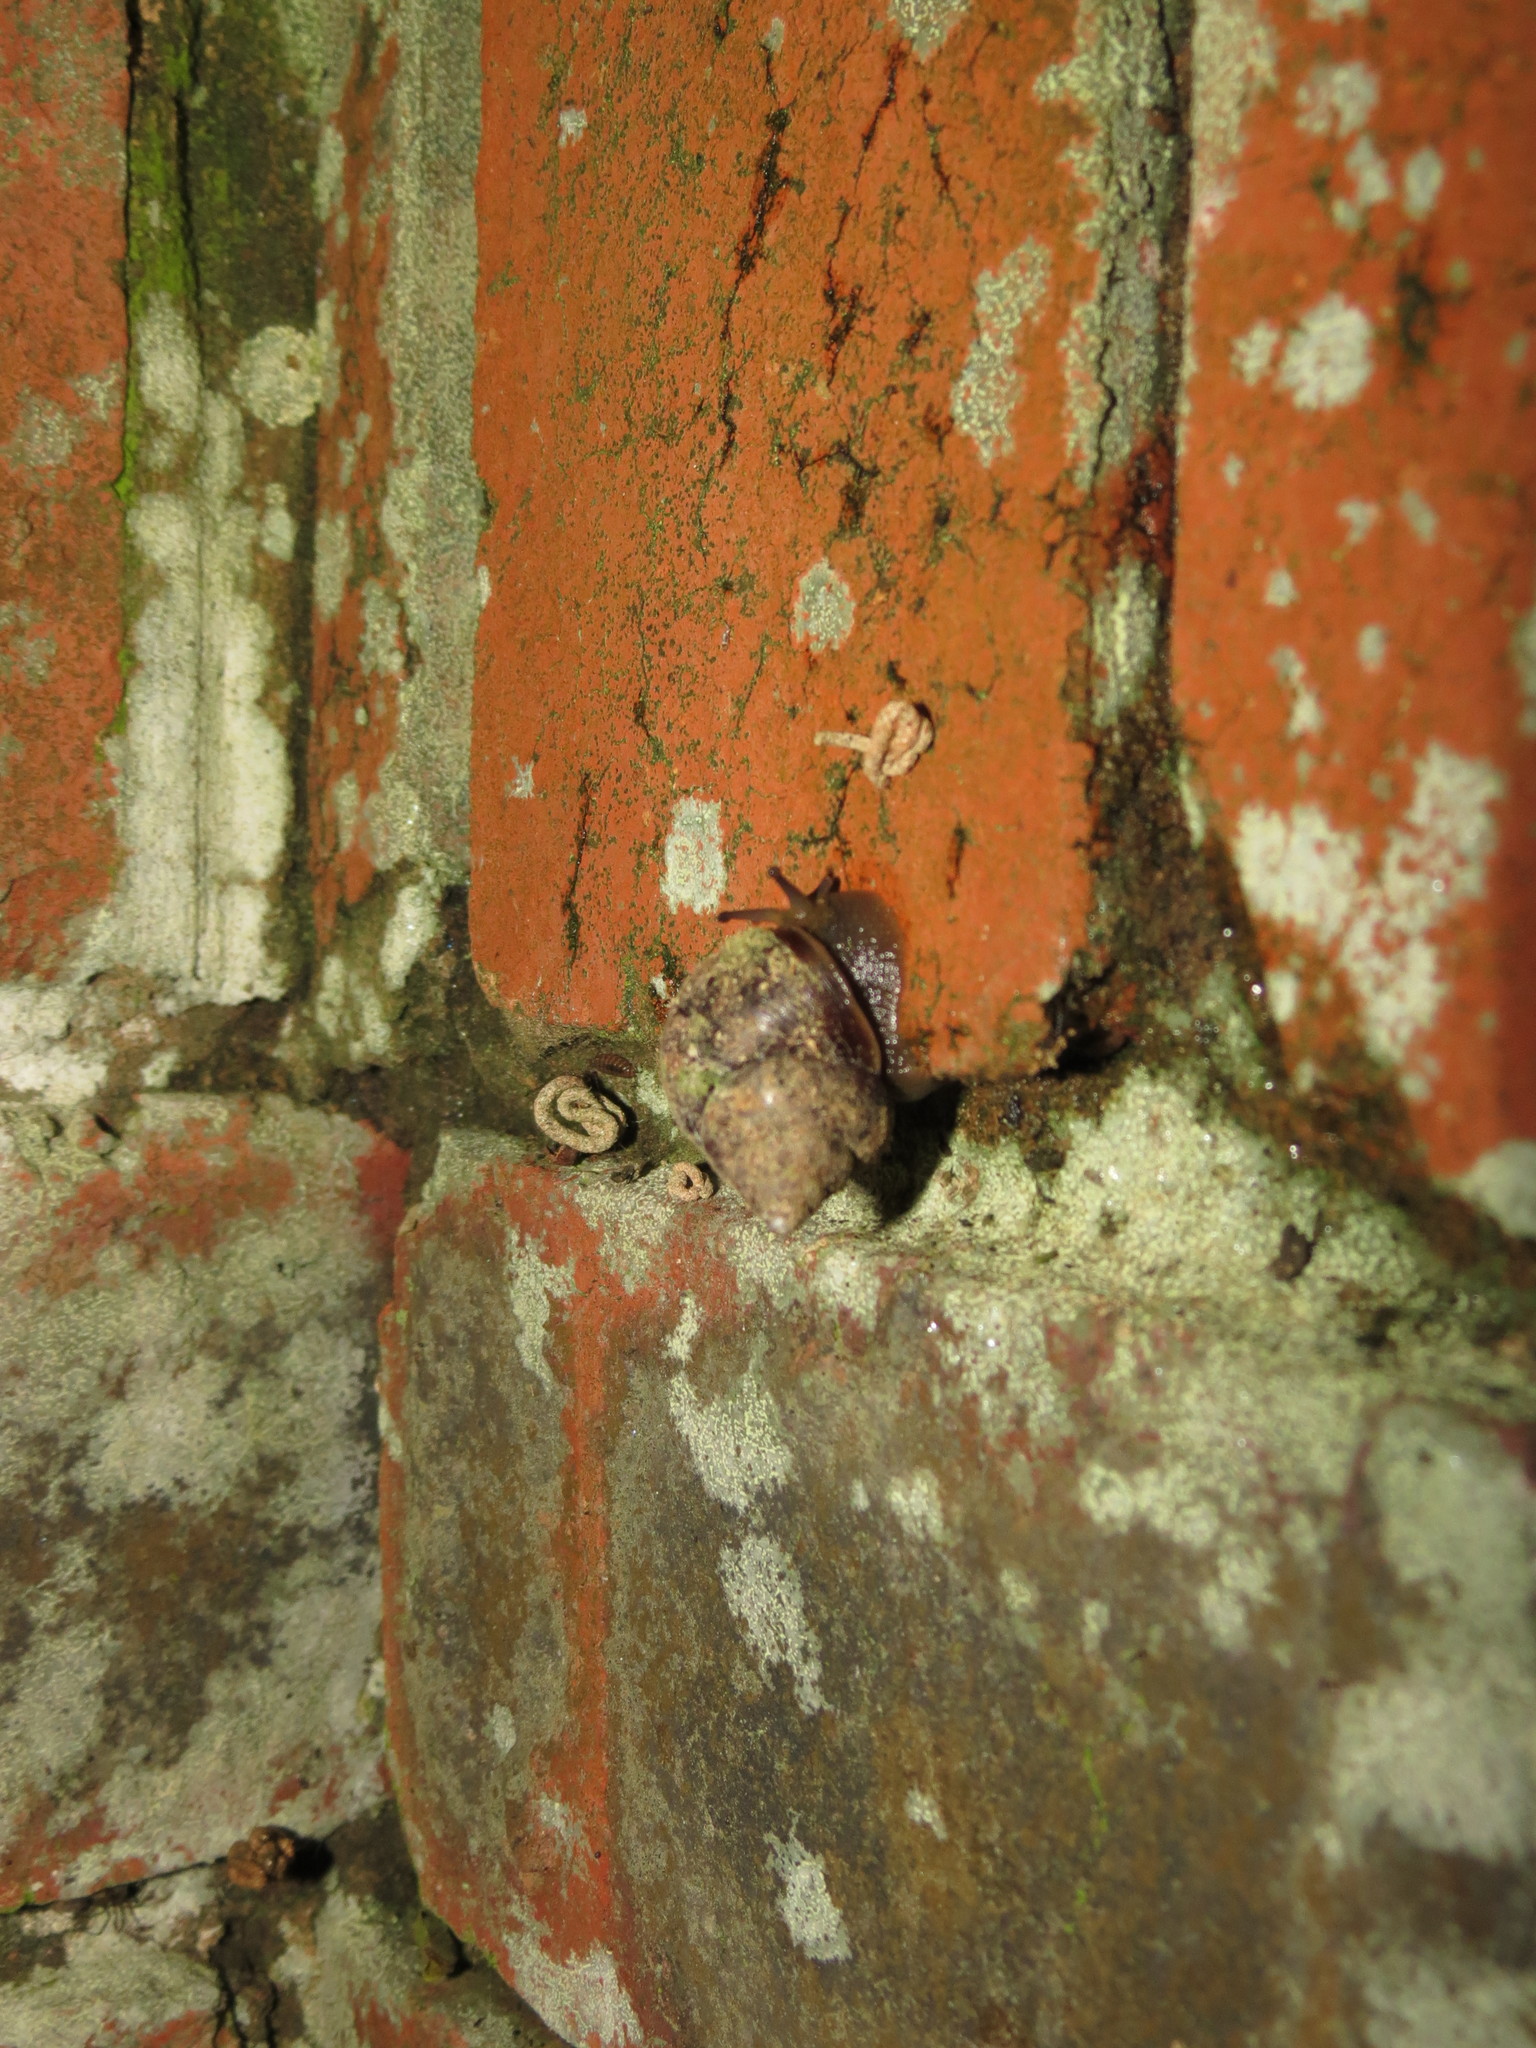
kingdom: Animalia
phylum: Mollusca
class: Gastropoda
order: Stylommatophora
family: Cerastidae
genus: Gittenedouardia
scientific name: Gittenedouardia spadicea
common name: Chestnut bark snail
